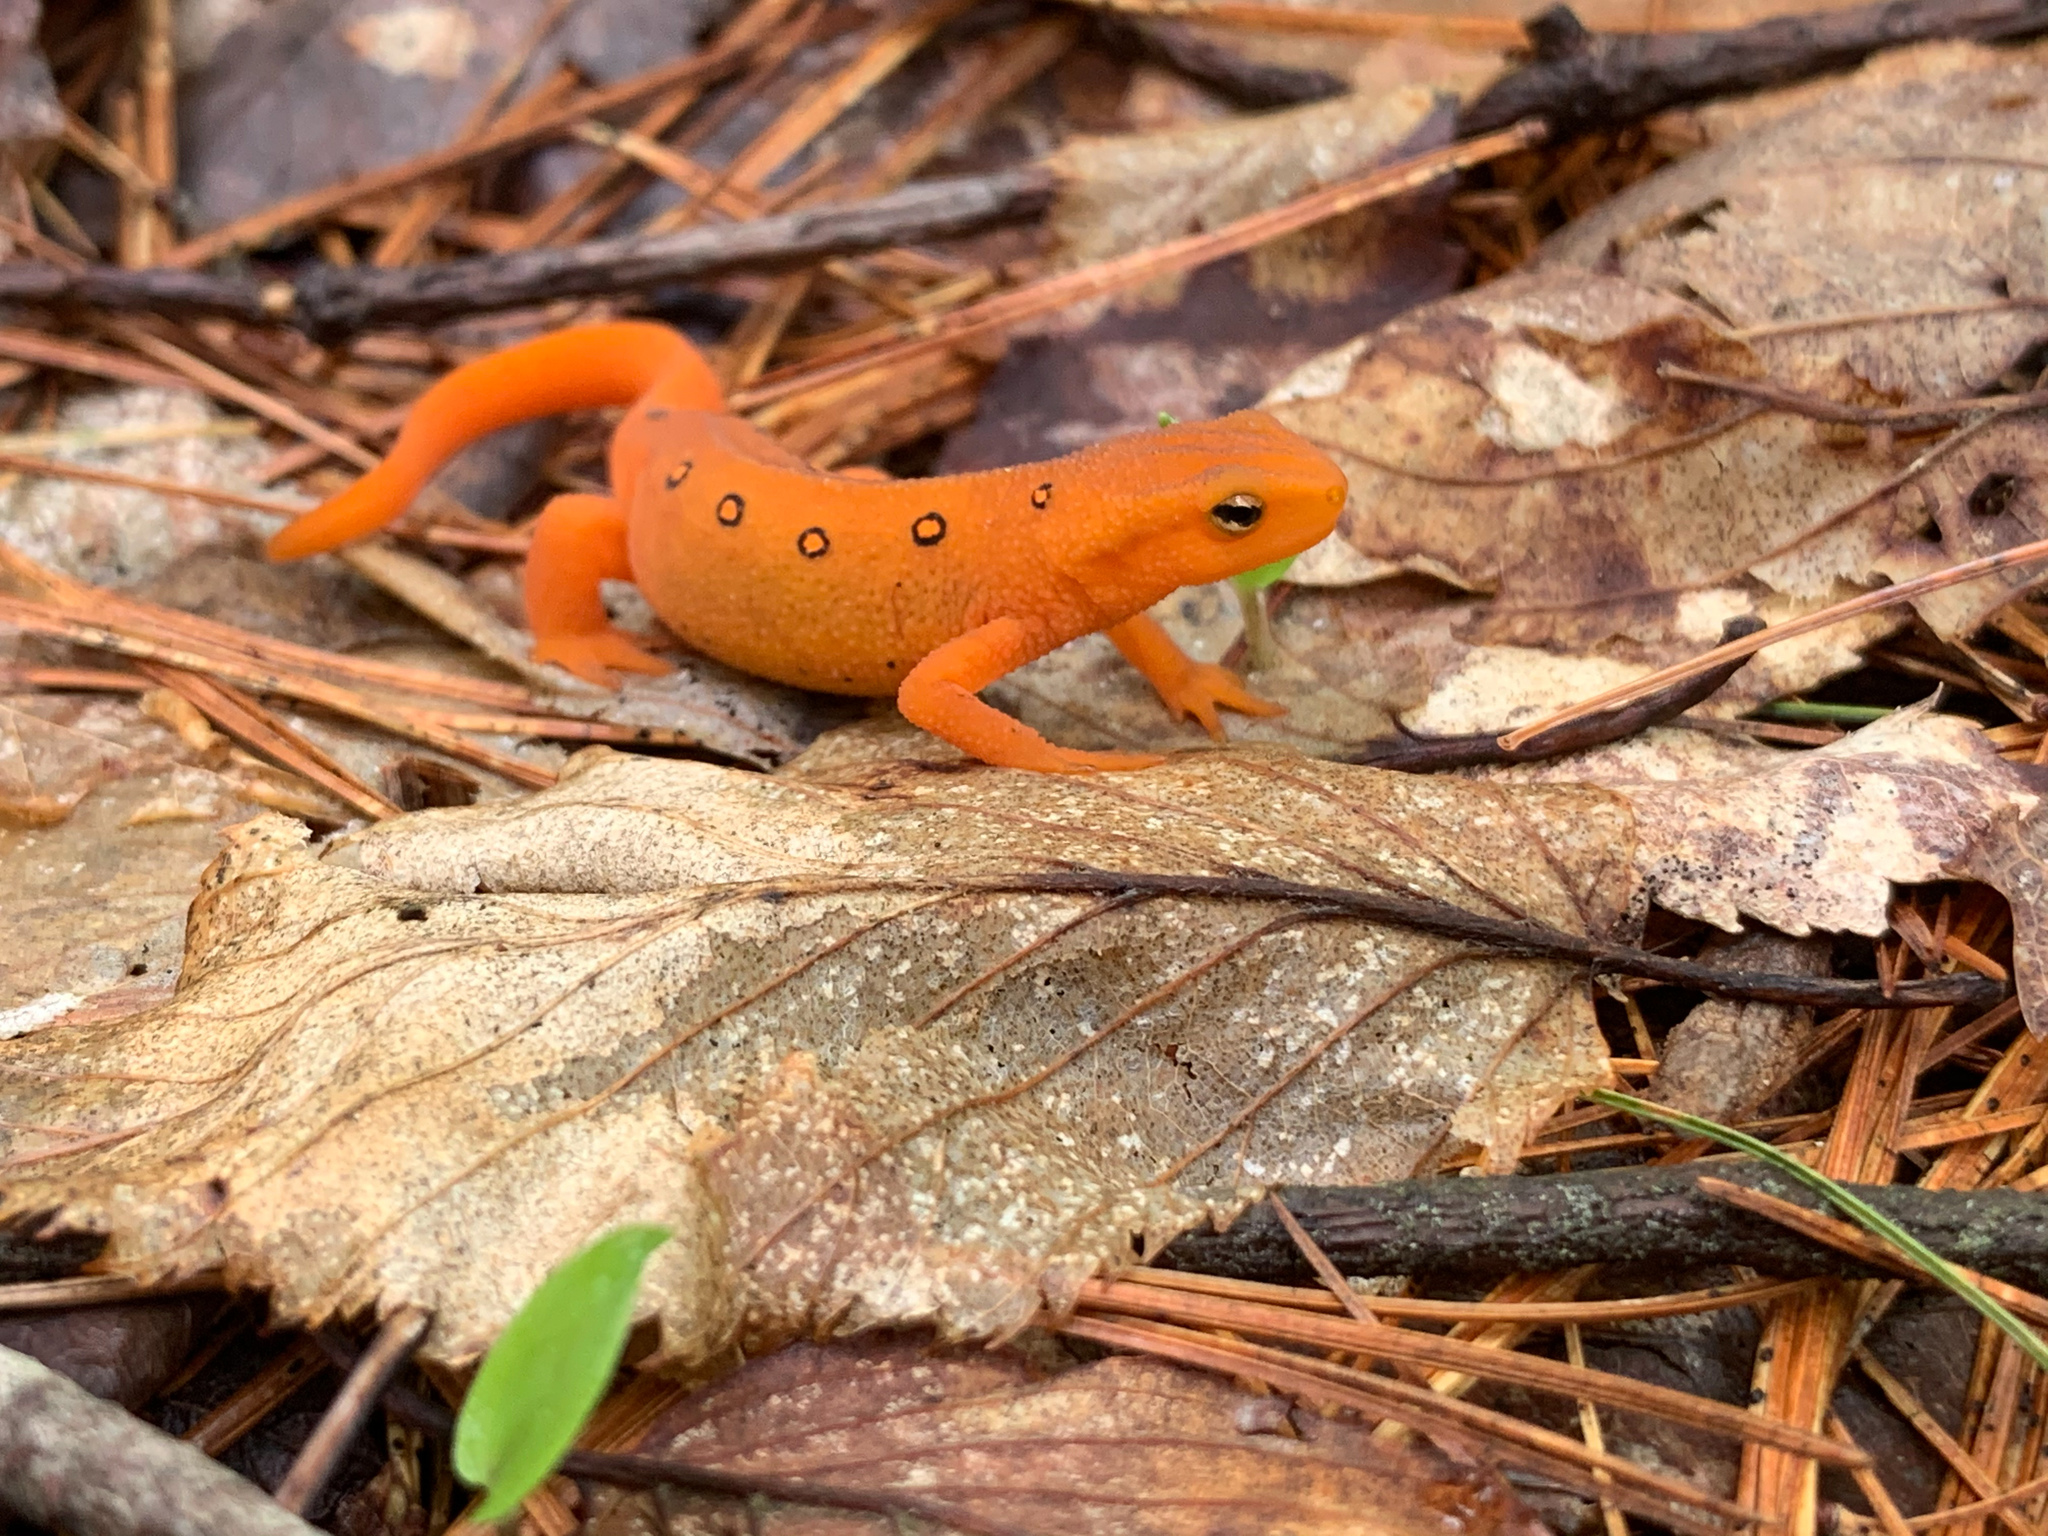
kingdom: Animalia
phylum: Chordata
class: Amphibia
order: Caudata
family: Salamandridae
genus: Notophthalmus
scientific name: Notophthalmus viridescens
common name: Eastern newt
